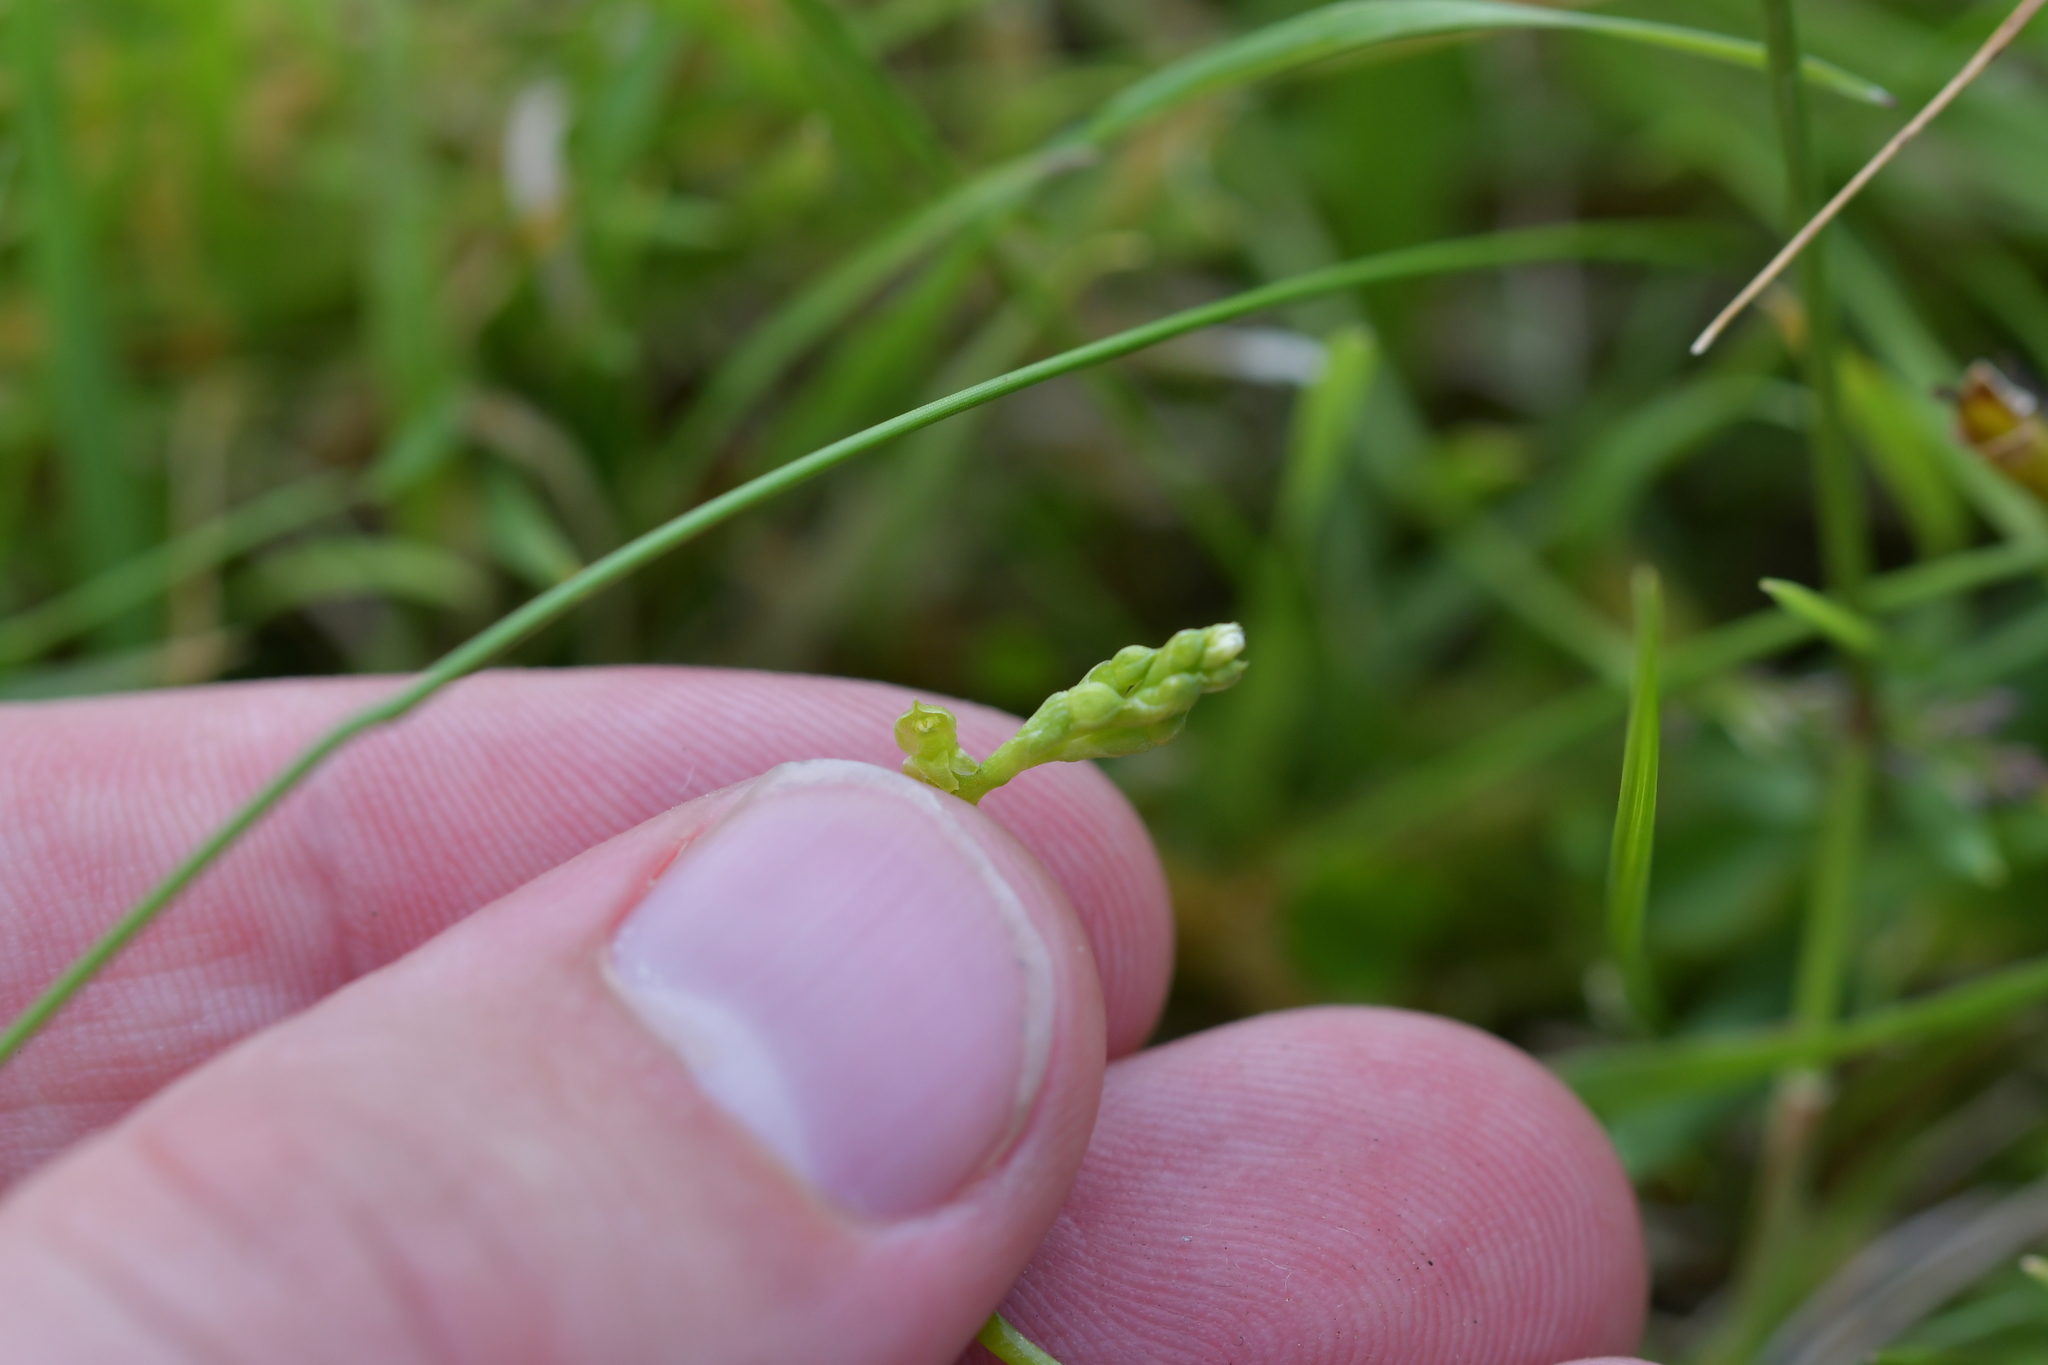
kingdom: Plantae
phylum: Tracheophyta
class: Liliopsida
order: Asparagales
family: Orchidaceae
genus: Microtis
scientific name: Microtis oligantha
